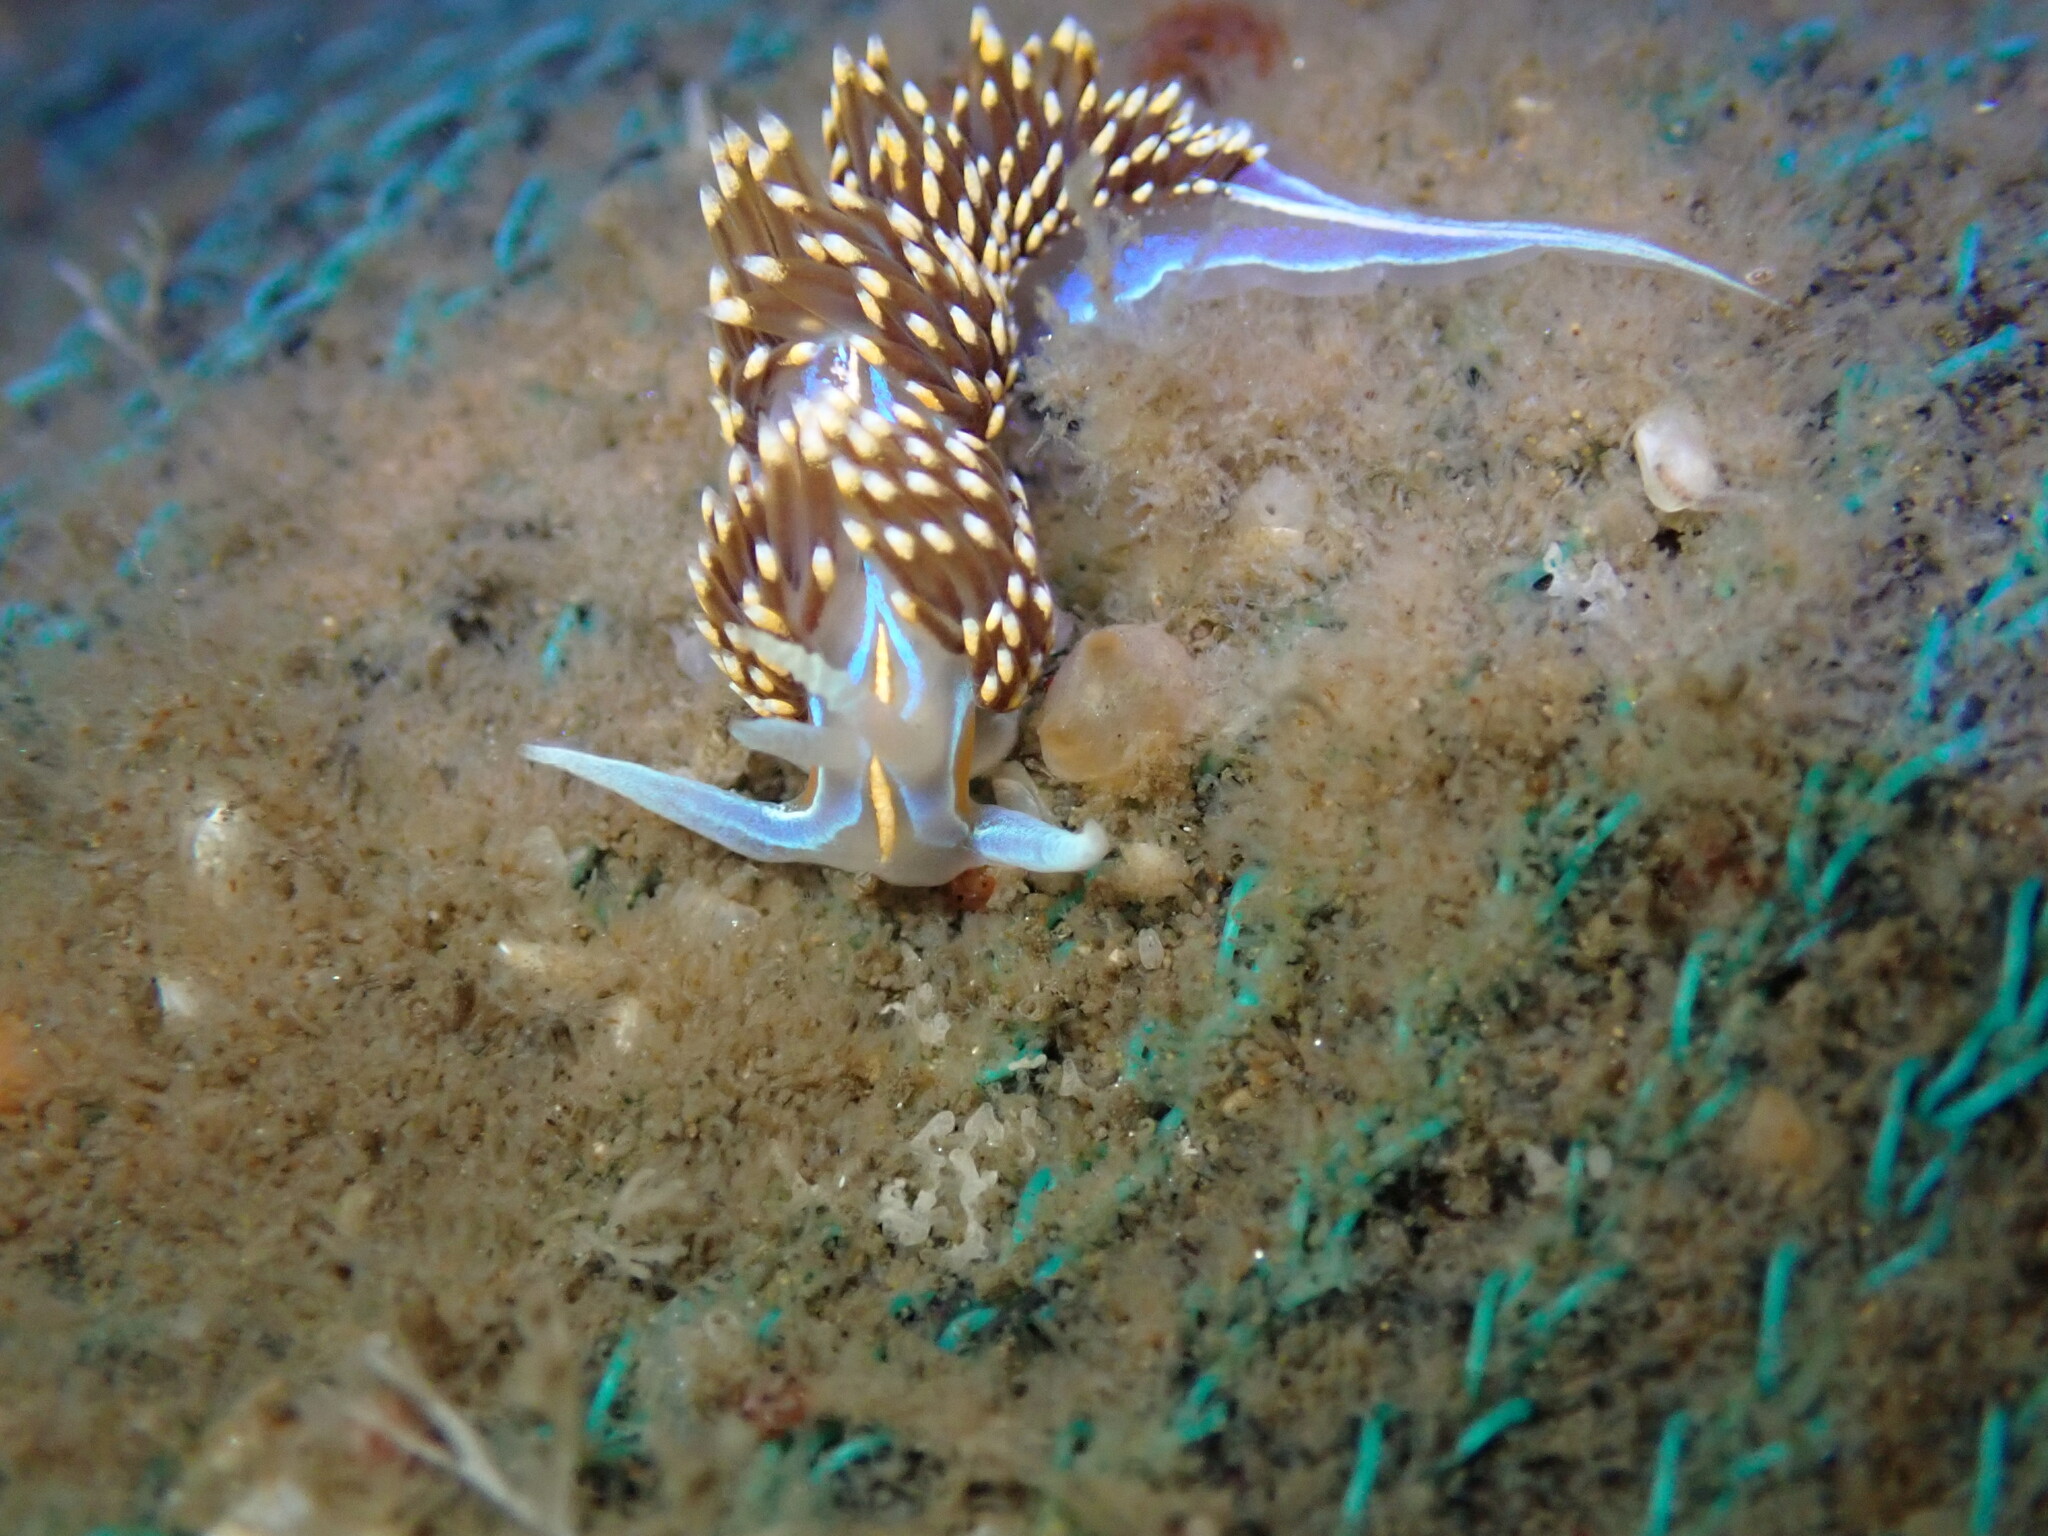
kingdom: Animalia
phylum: Mollusca
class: Gastropoda
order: Nudibranchia
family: Myrrhinidae
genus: Hermissenda
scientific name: Hermissenda opalescens
